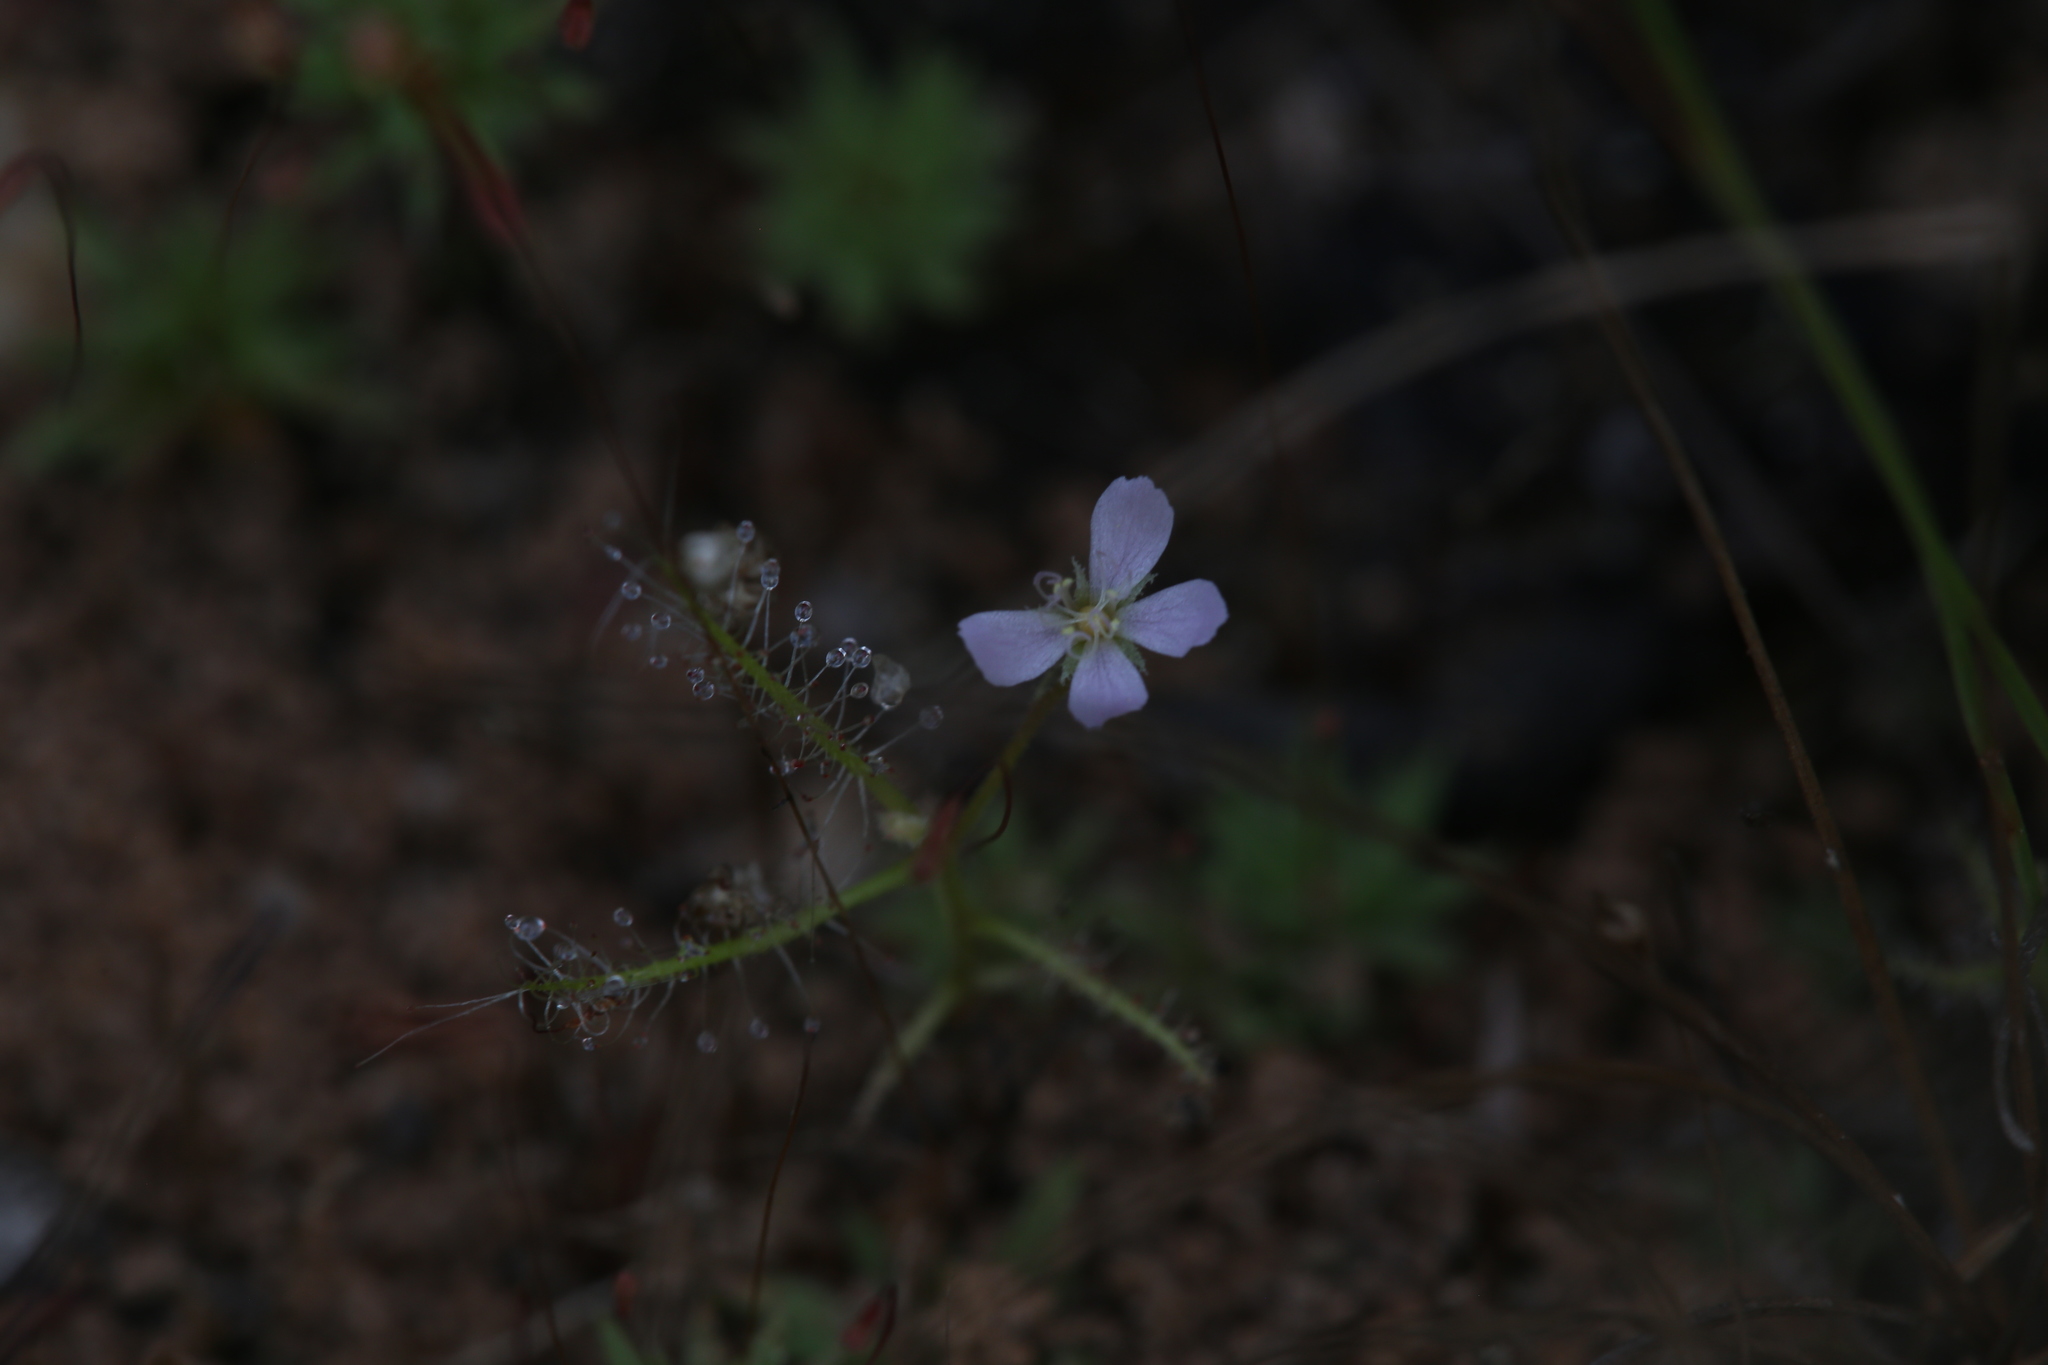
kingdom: Plantae
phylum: Tracheophyta
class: Magnoliopsida
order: Caryophyllales
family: Droseraceae
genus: Drosera
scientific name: Drosera indica
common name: Indian sundew
